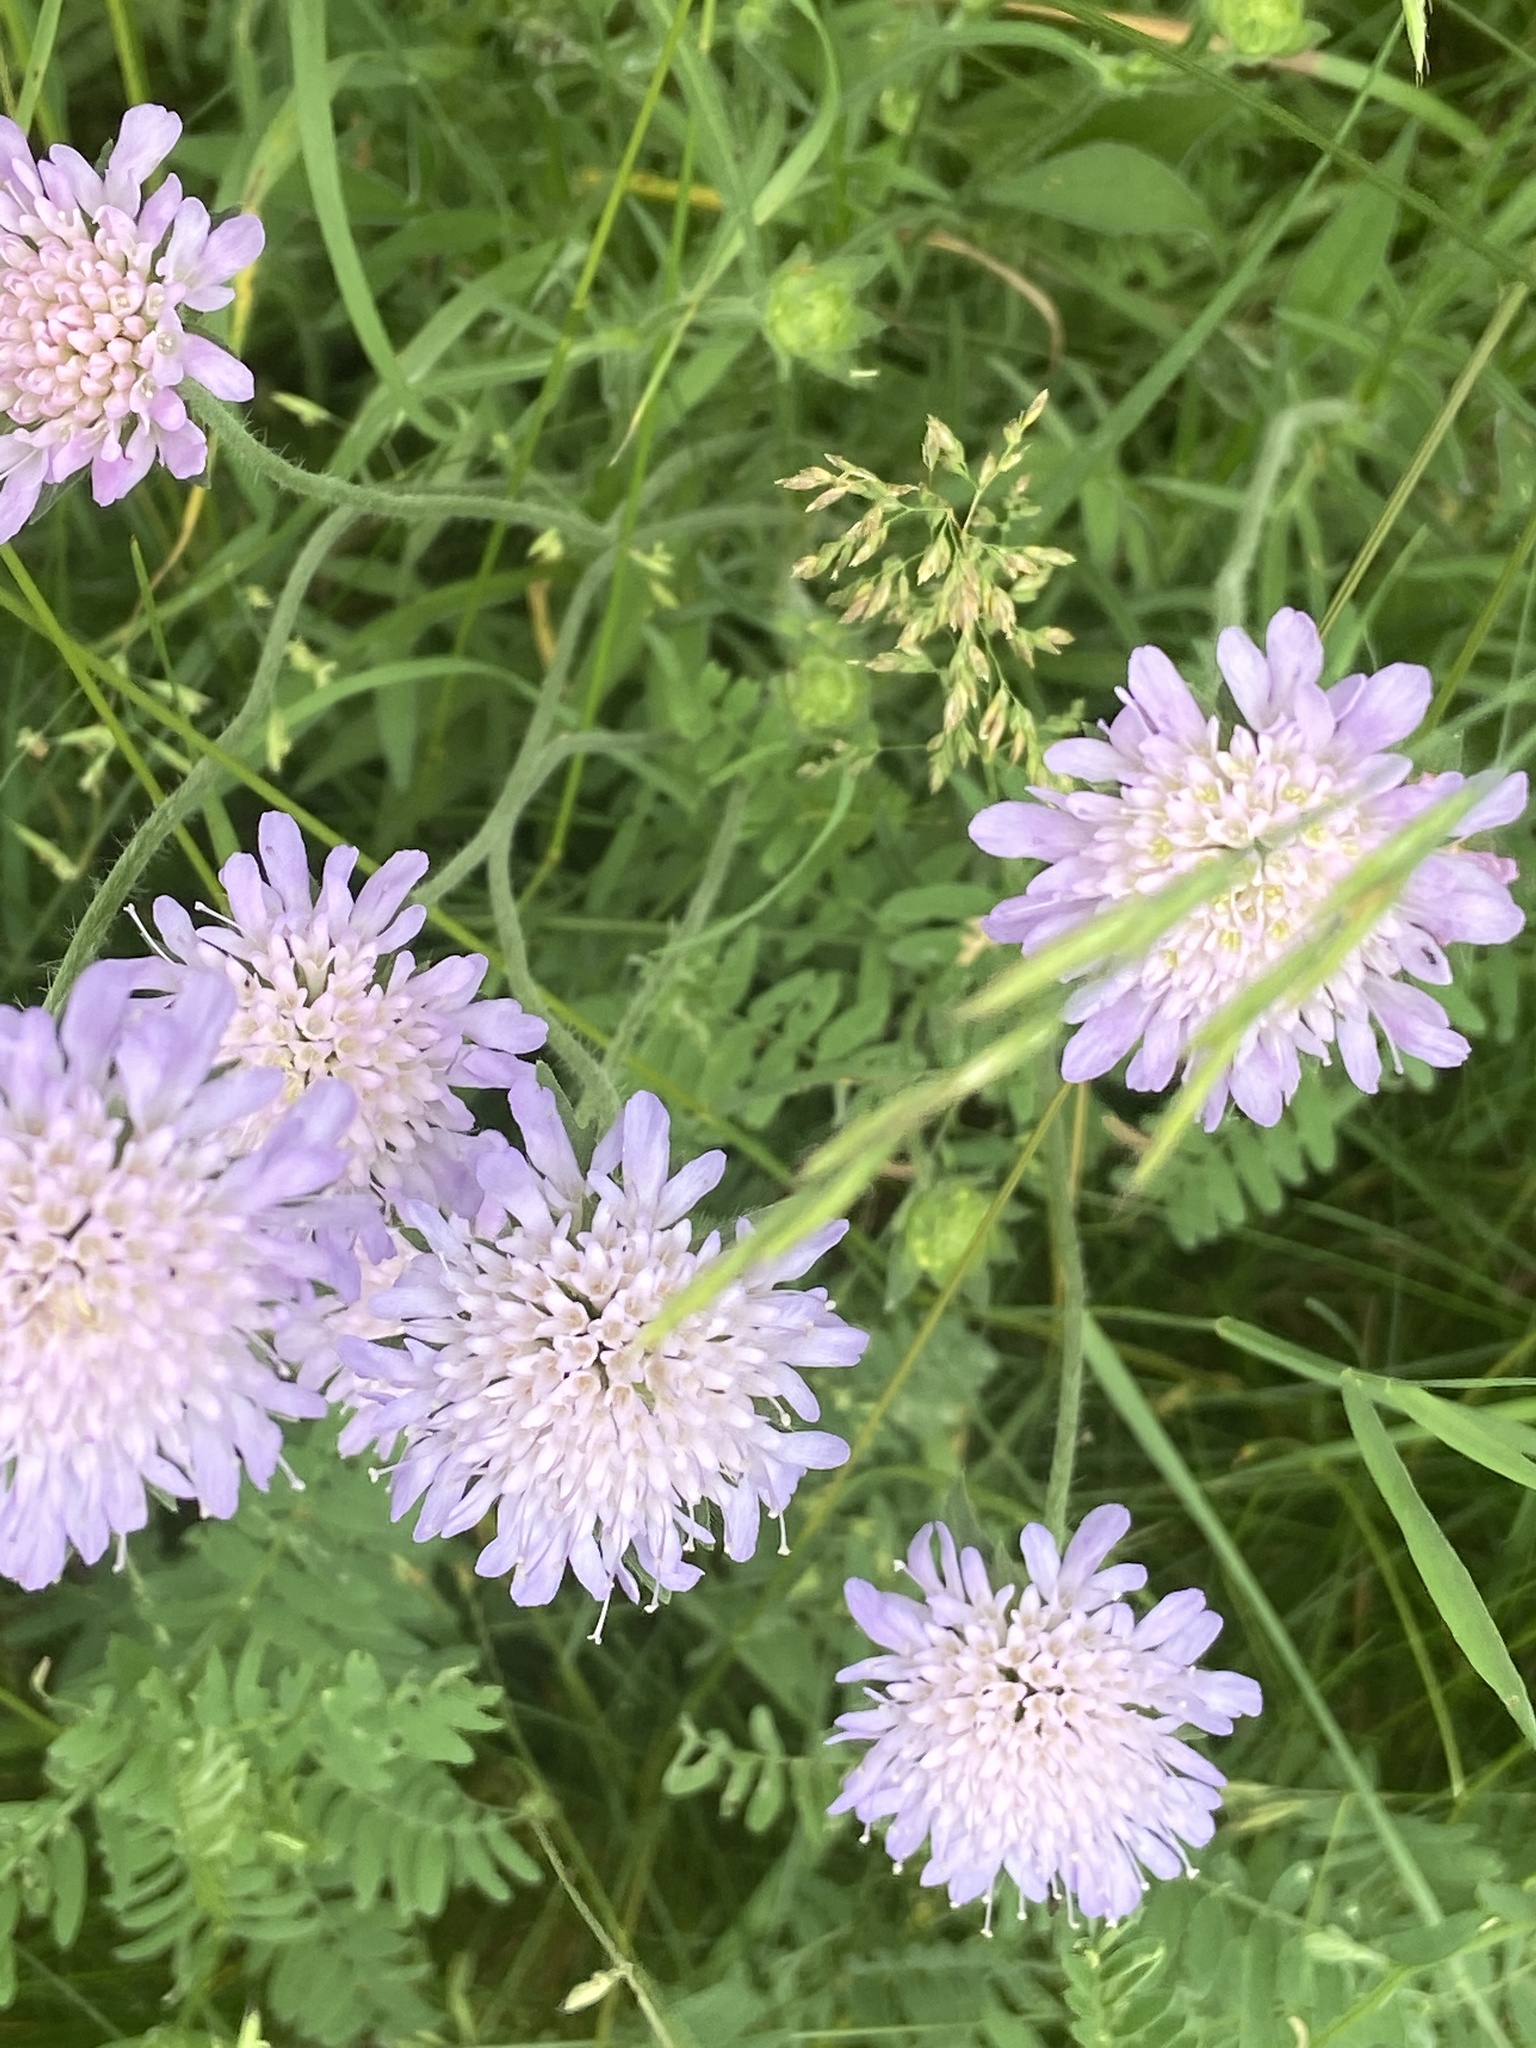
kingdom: Plantae
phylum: Tracheophyta
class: Magnoliopsida
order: Dipsacales
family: Caprifoliaceae
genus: Knautia
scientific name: Knautia arvensis
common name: Field scabiosa
